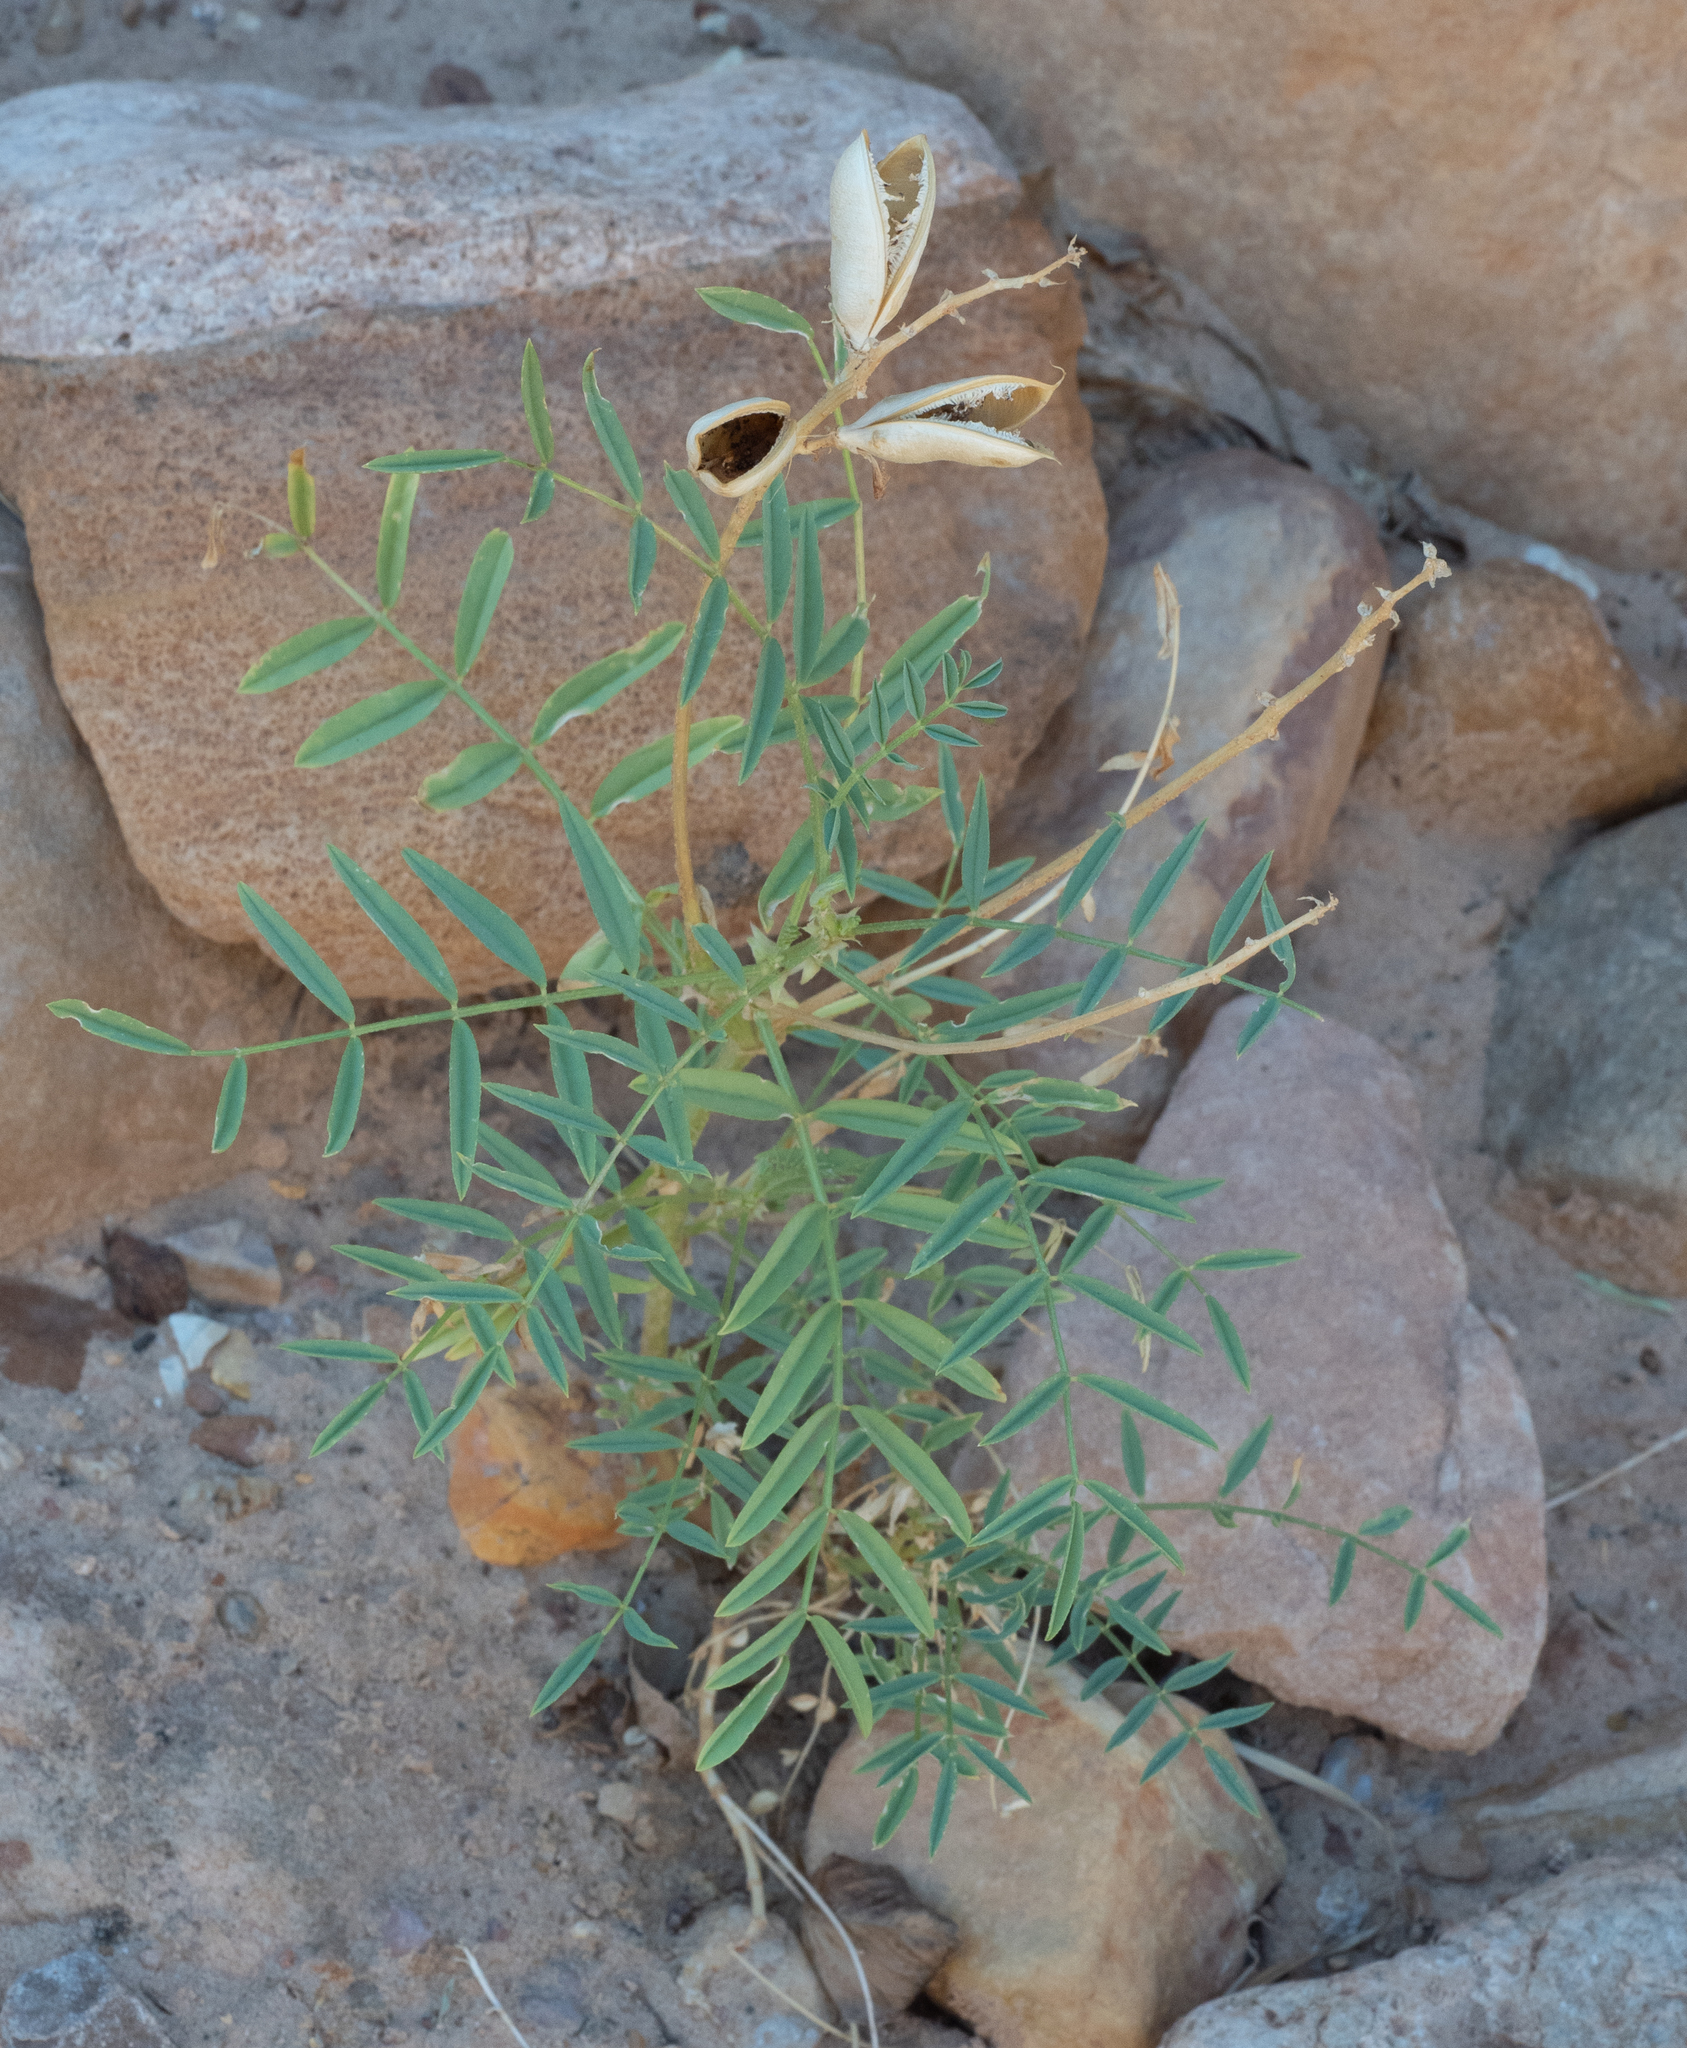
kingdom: Plantae
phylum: Tracheophyta
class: Magnoliopsida
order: Fabales
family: Fabaceae
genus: Astragalus
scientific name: Astragalus praelongus
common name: Stinking milk-vetch
